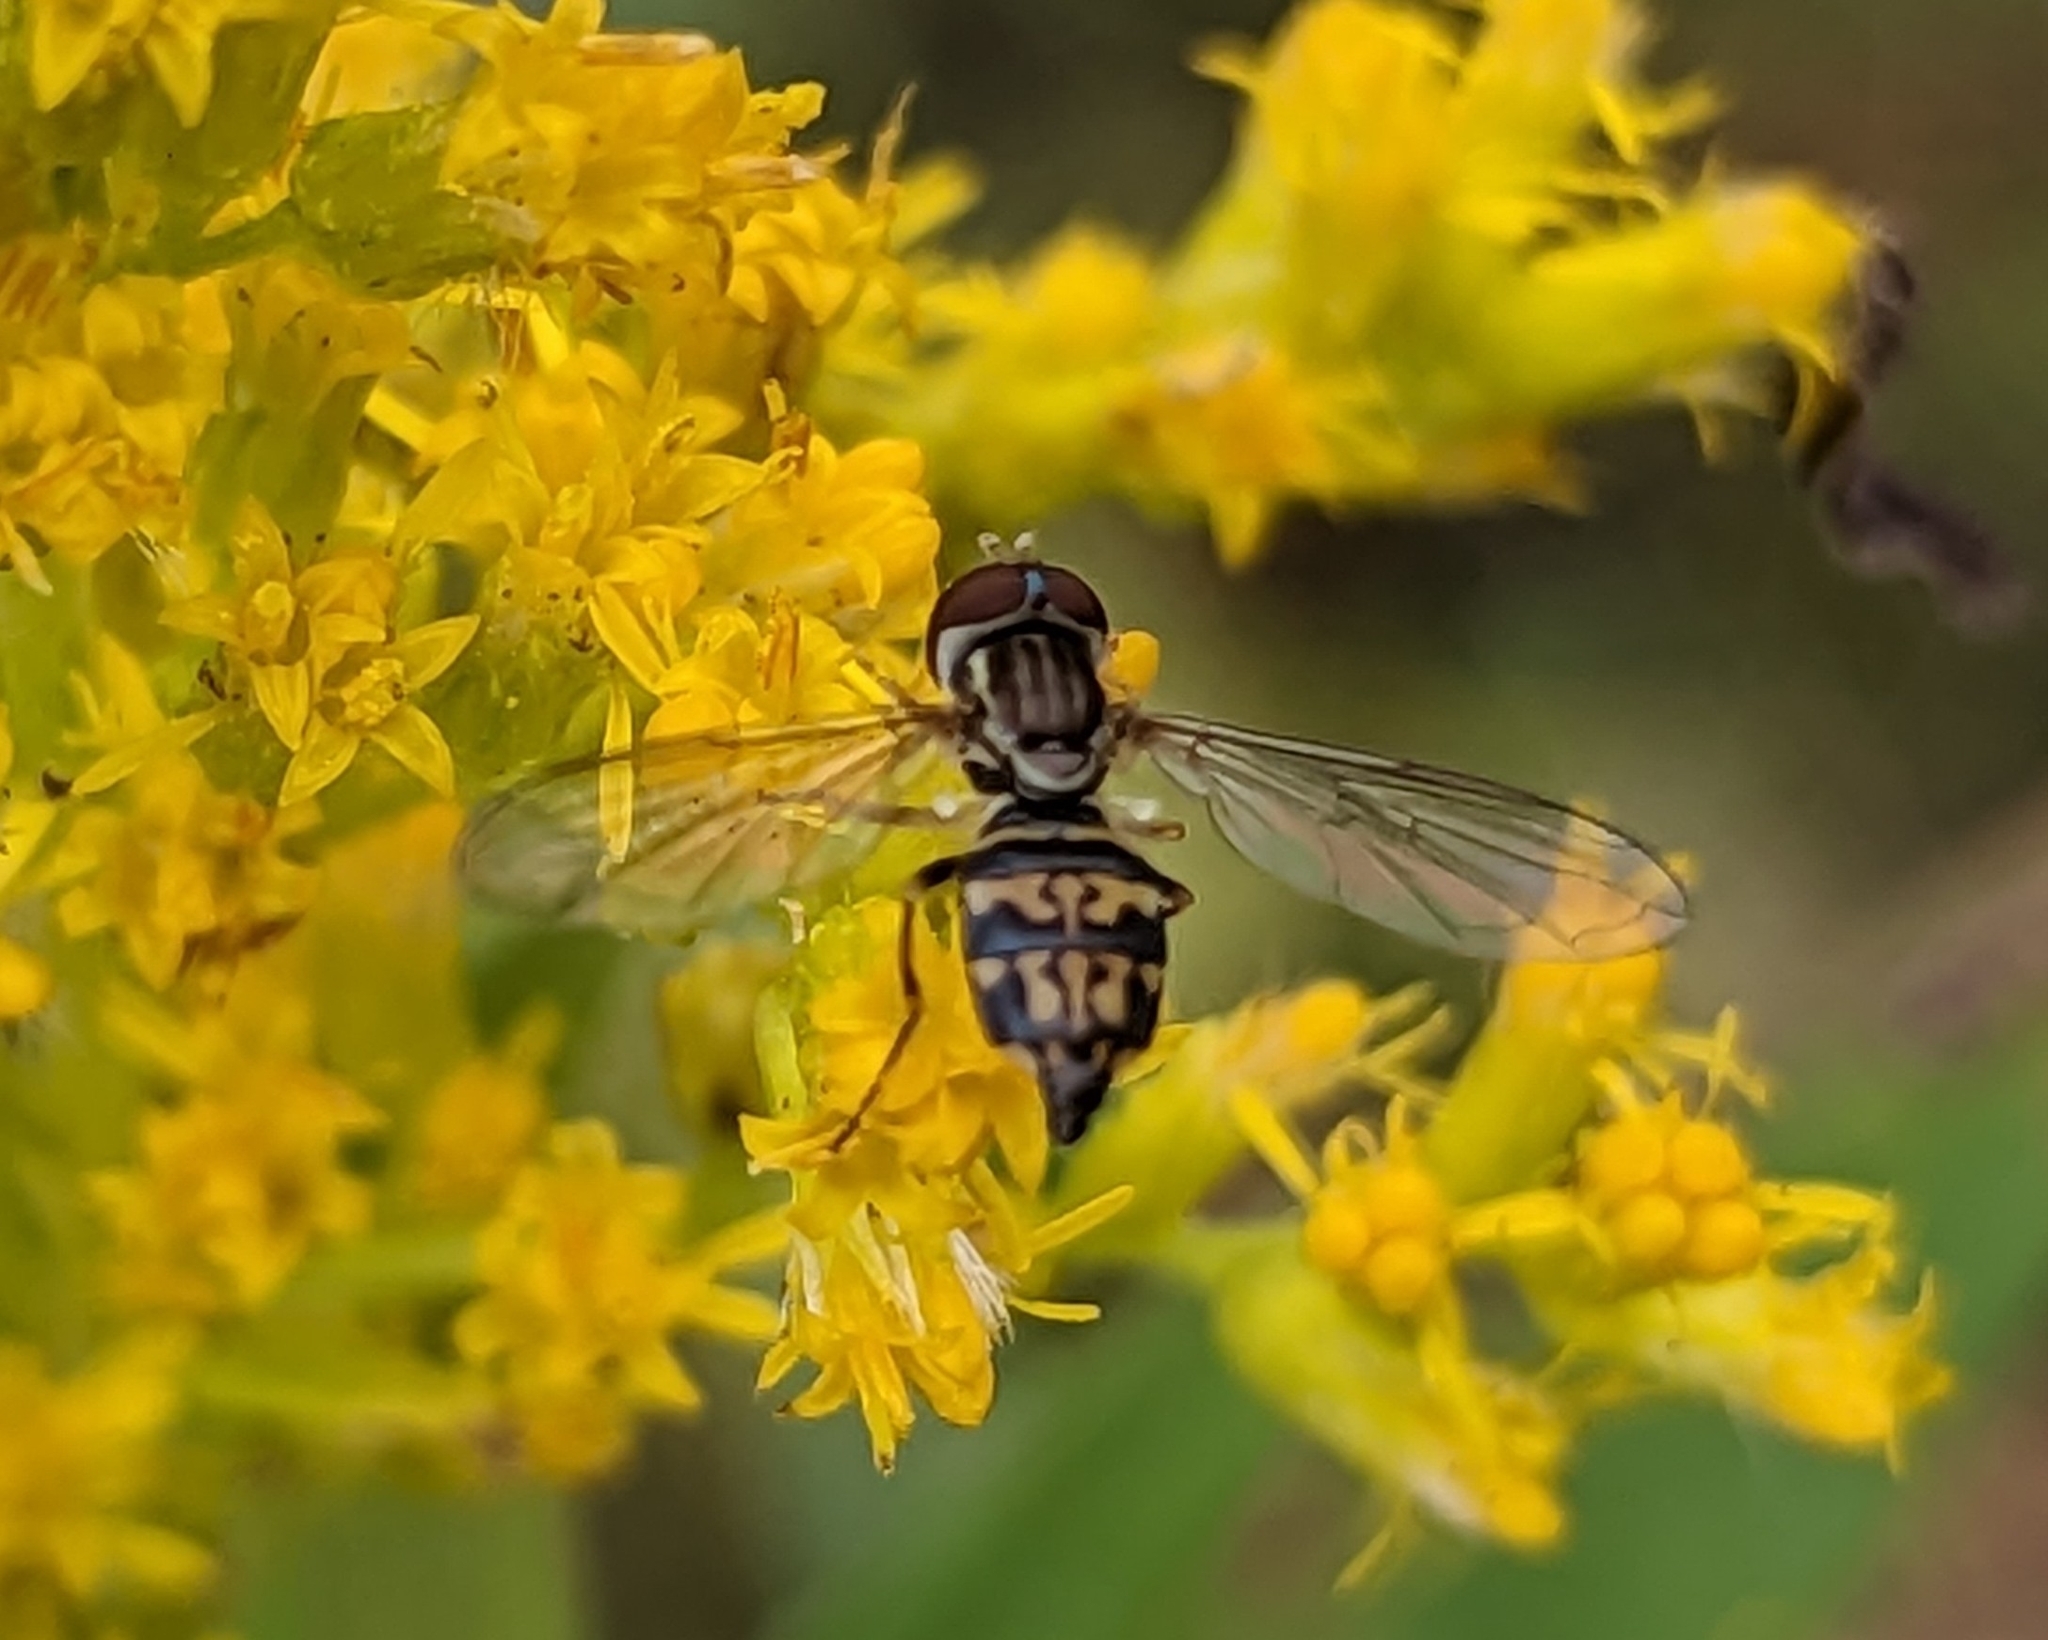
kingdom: Animalia
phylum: Arthropoda
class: Insecta
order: Diptera
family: Syrphidae
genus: Toxomerus
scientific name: Toxomerus geminatus
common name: Eastern calligrapher
